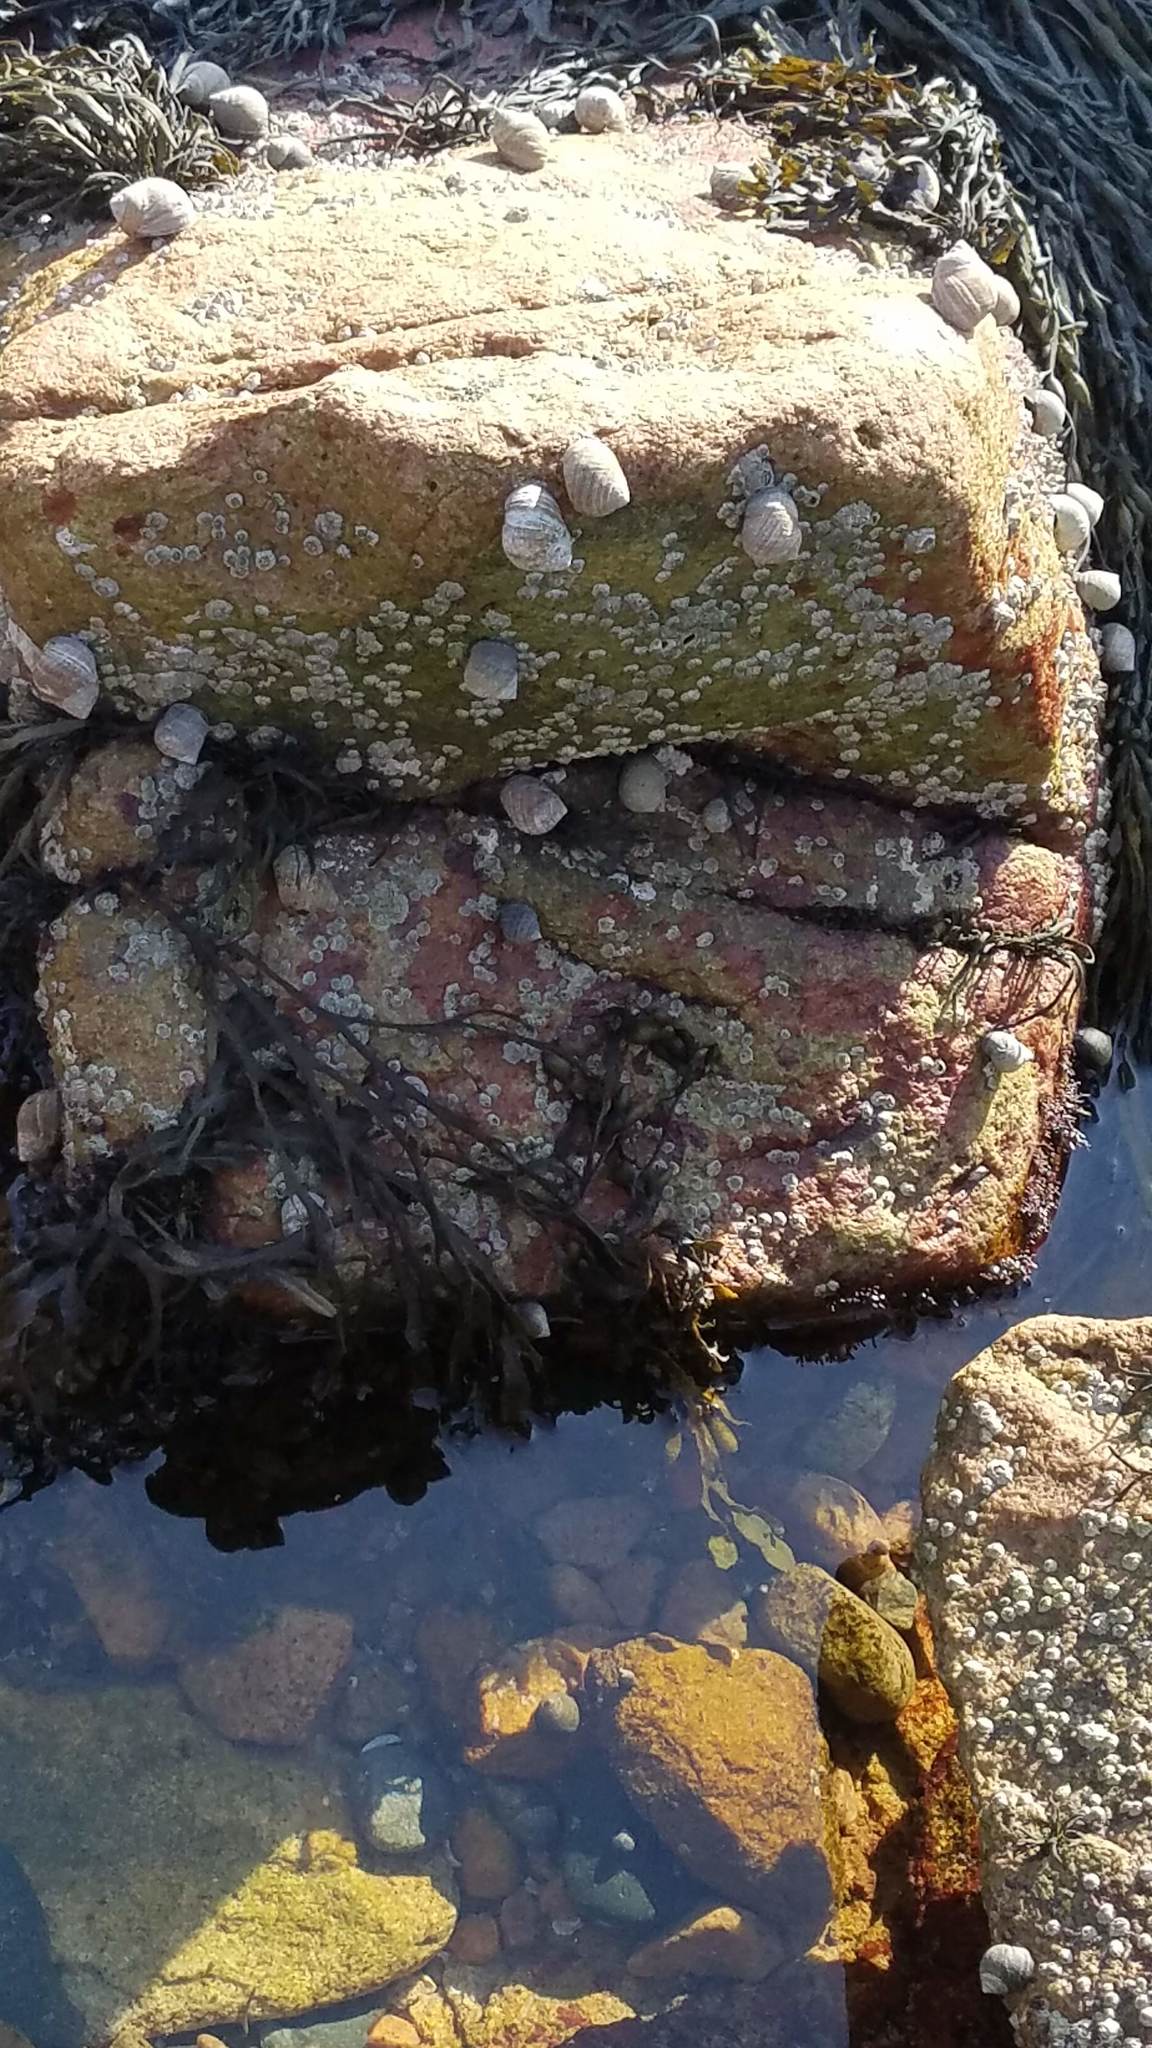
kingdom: Animalia
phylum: Arthropoda
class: Maxillopoda
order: Sessilia
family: Archaeobalanidae
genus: Semibalanus
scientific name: Semibalanus balanoides
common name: Acorn barnacle
